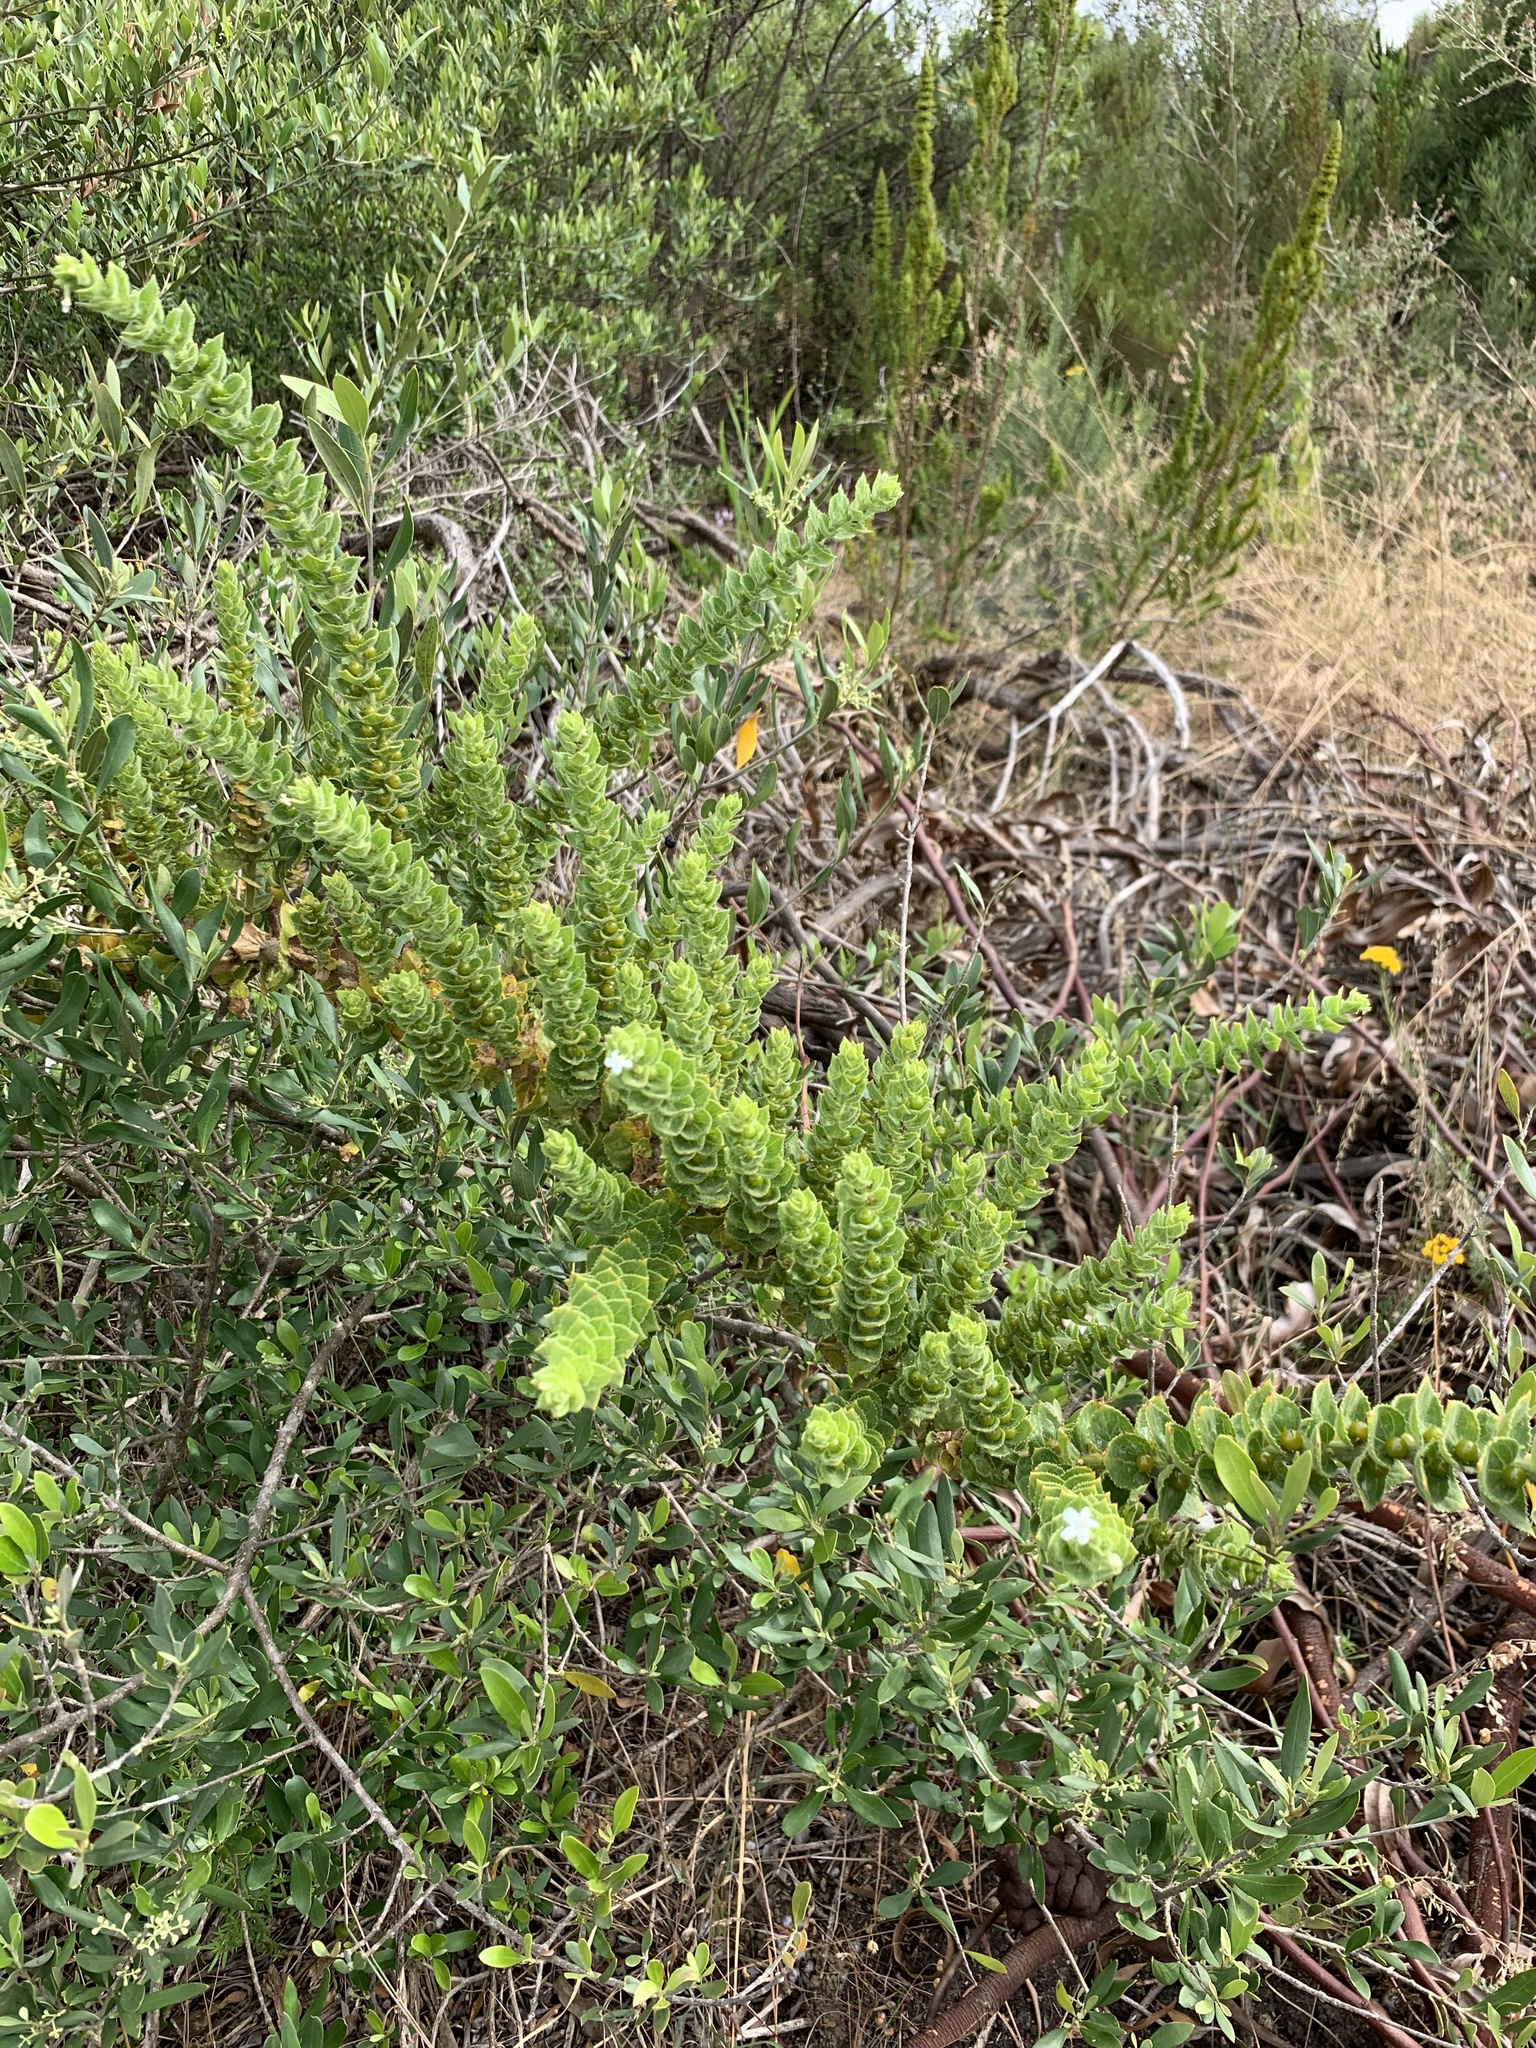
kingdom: Plantae
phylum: Tracheophyta
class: Magnoliopsida
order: Lamiales
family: Scrophulariaceae
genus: Oftia
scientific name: Oftia africana
